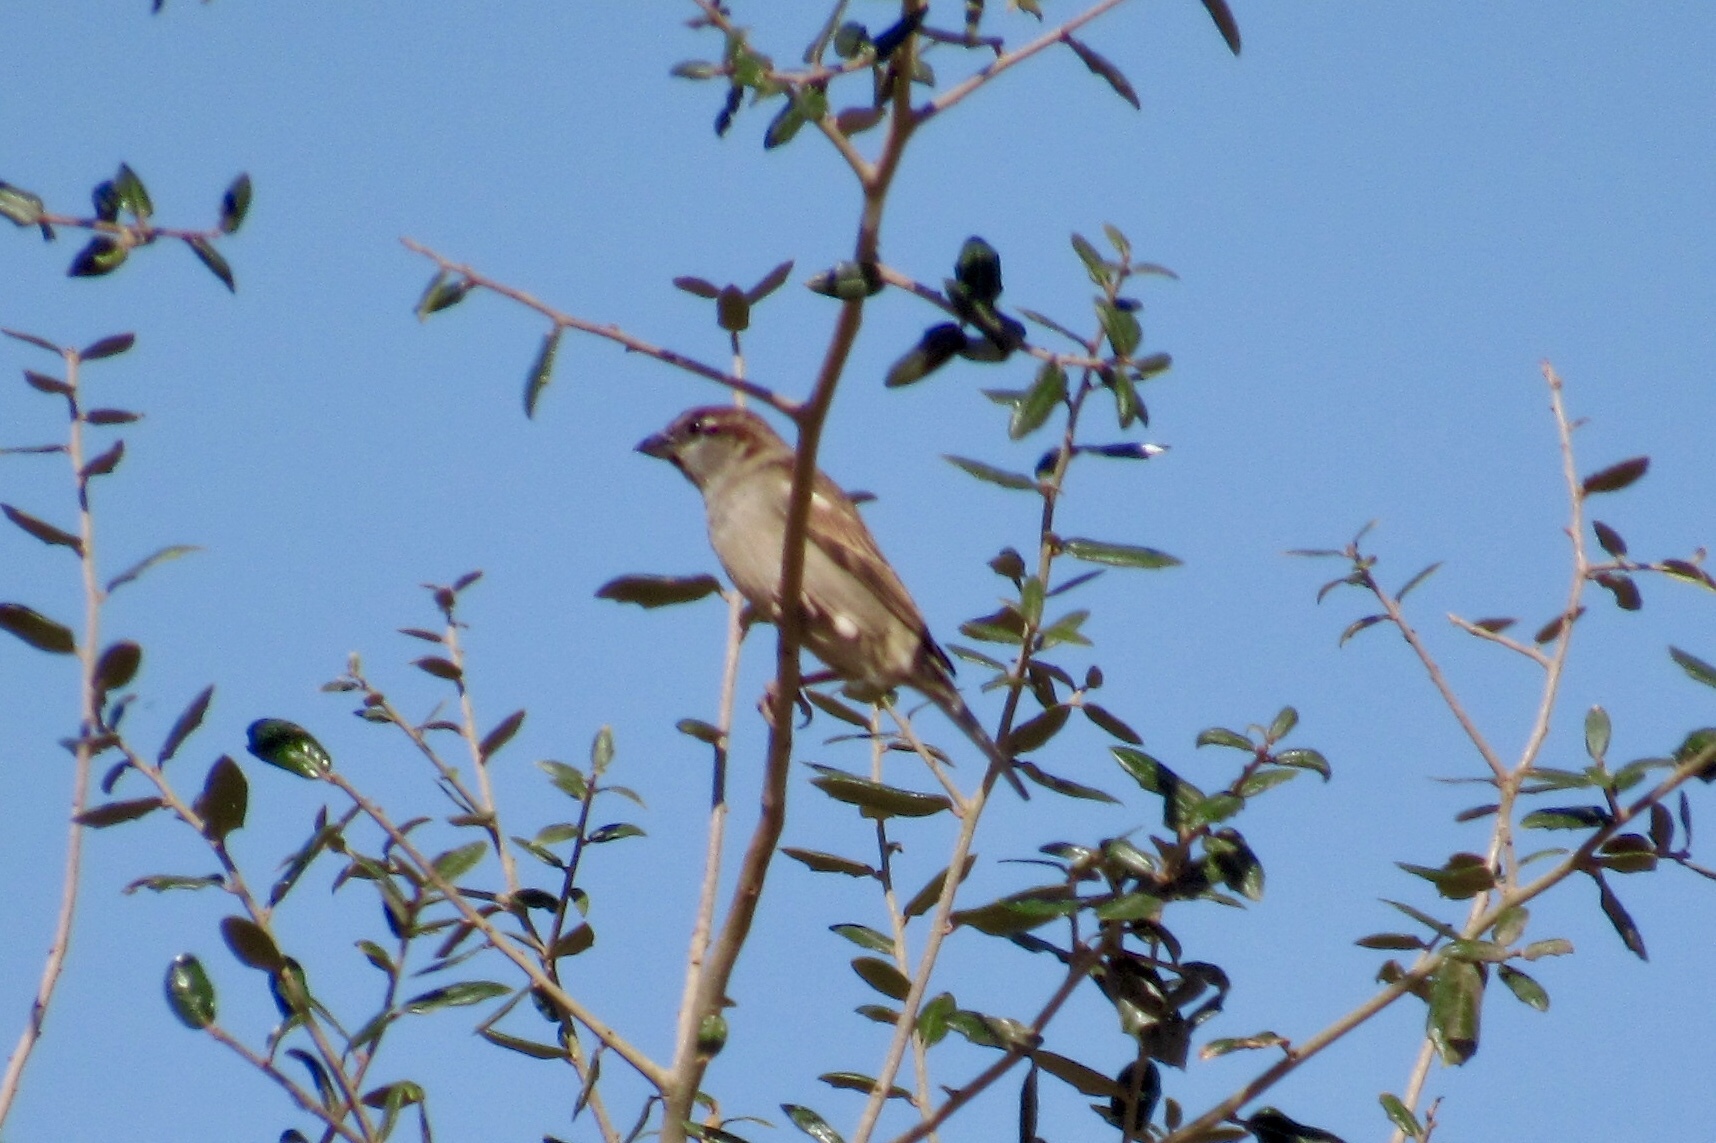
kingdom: Animalia
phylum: Chordata
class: Aves
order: Passeriformes
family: Passeridae
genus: Passer
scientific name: Passer domesticus
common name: House sparrow
